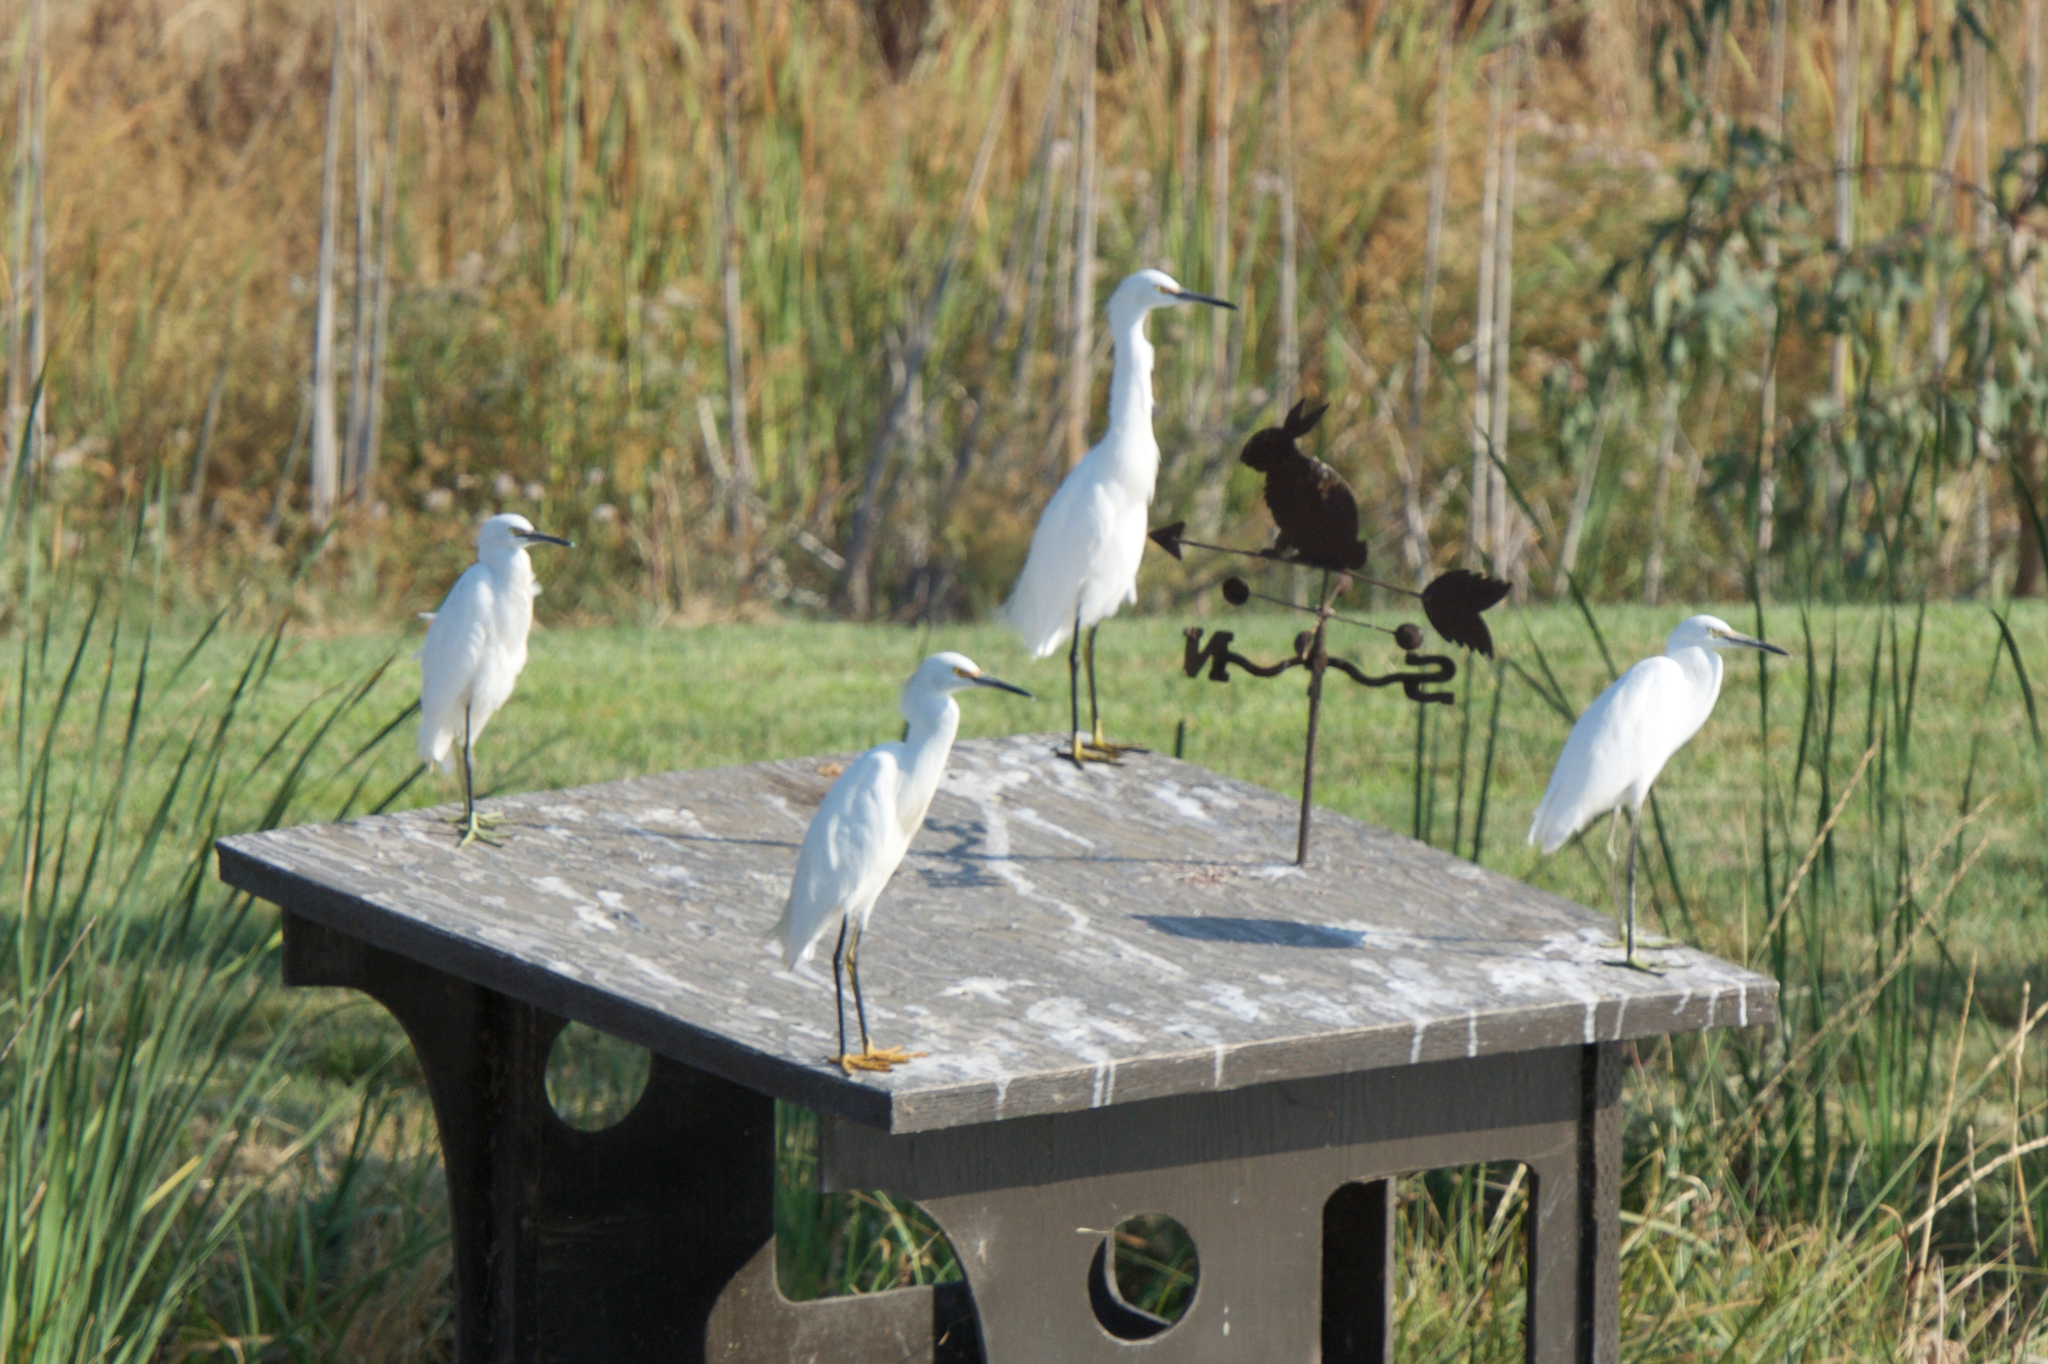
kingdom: Animalia
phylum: Chordata
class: Aves
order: Pelecaniformes
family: Ardeidae
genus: Egretta
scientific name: Egretta thula
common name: Snowy egret
